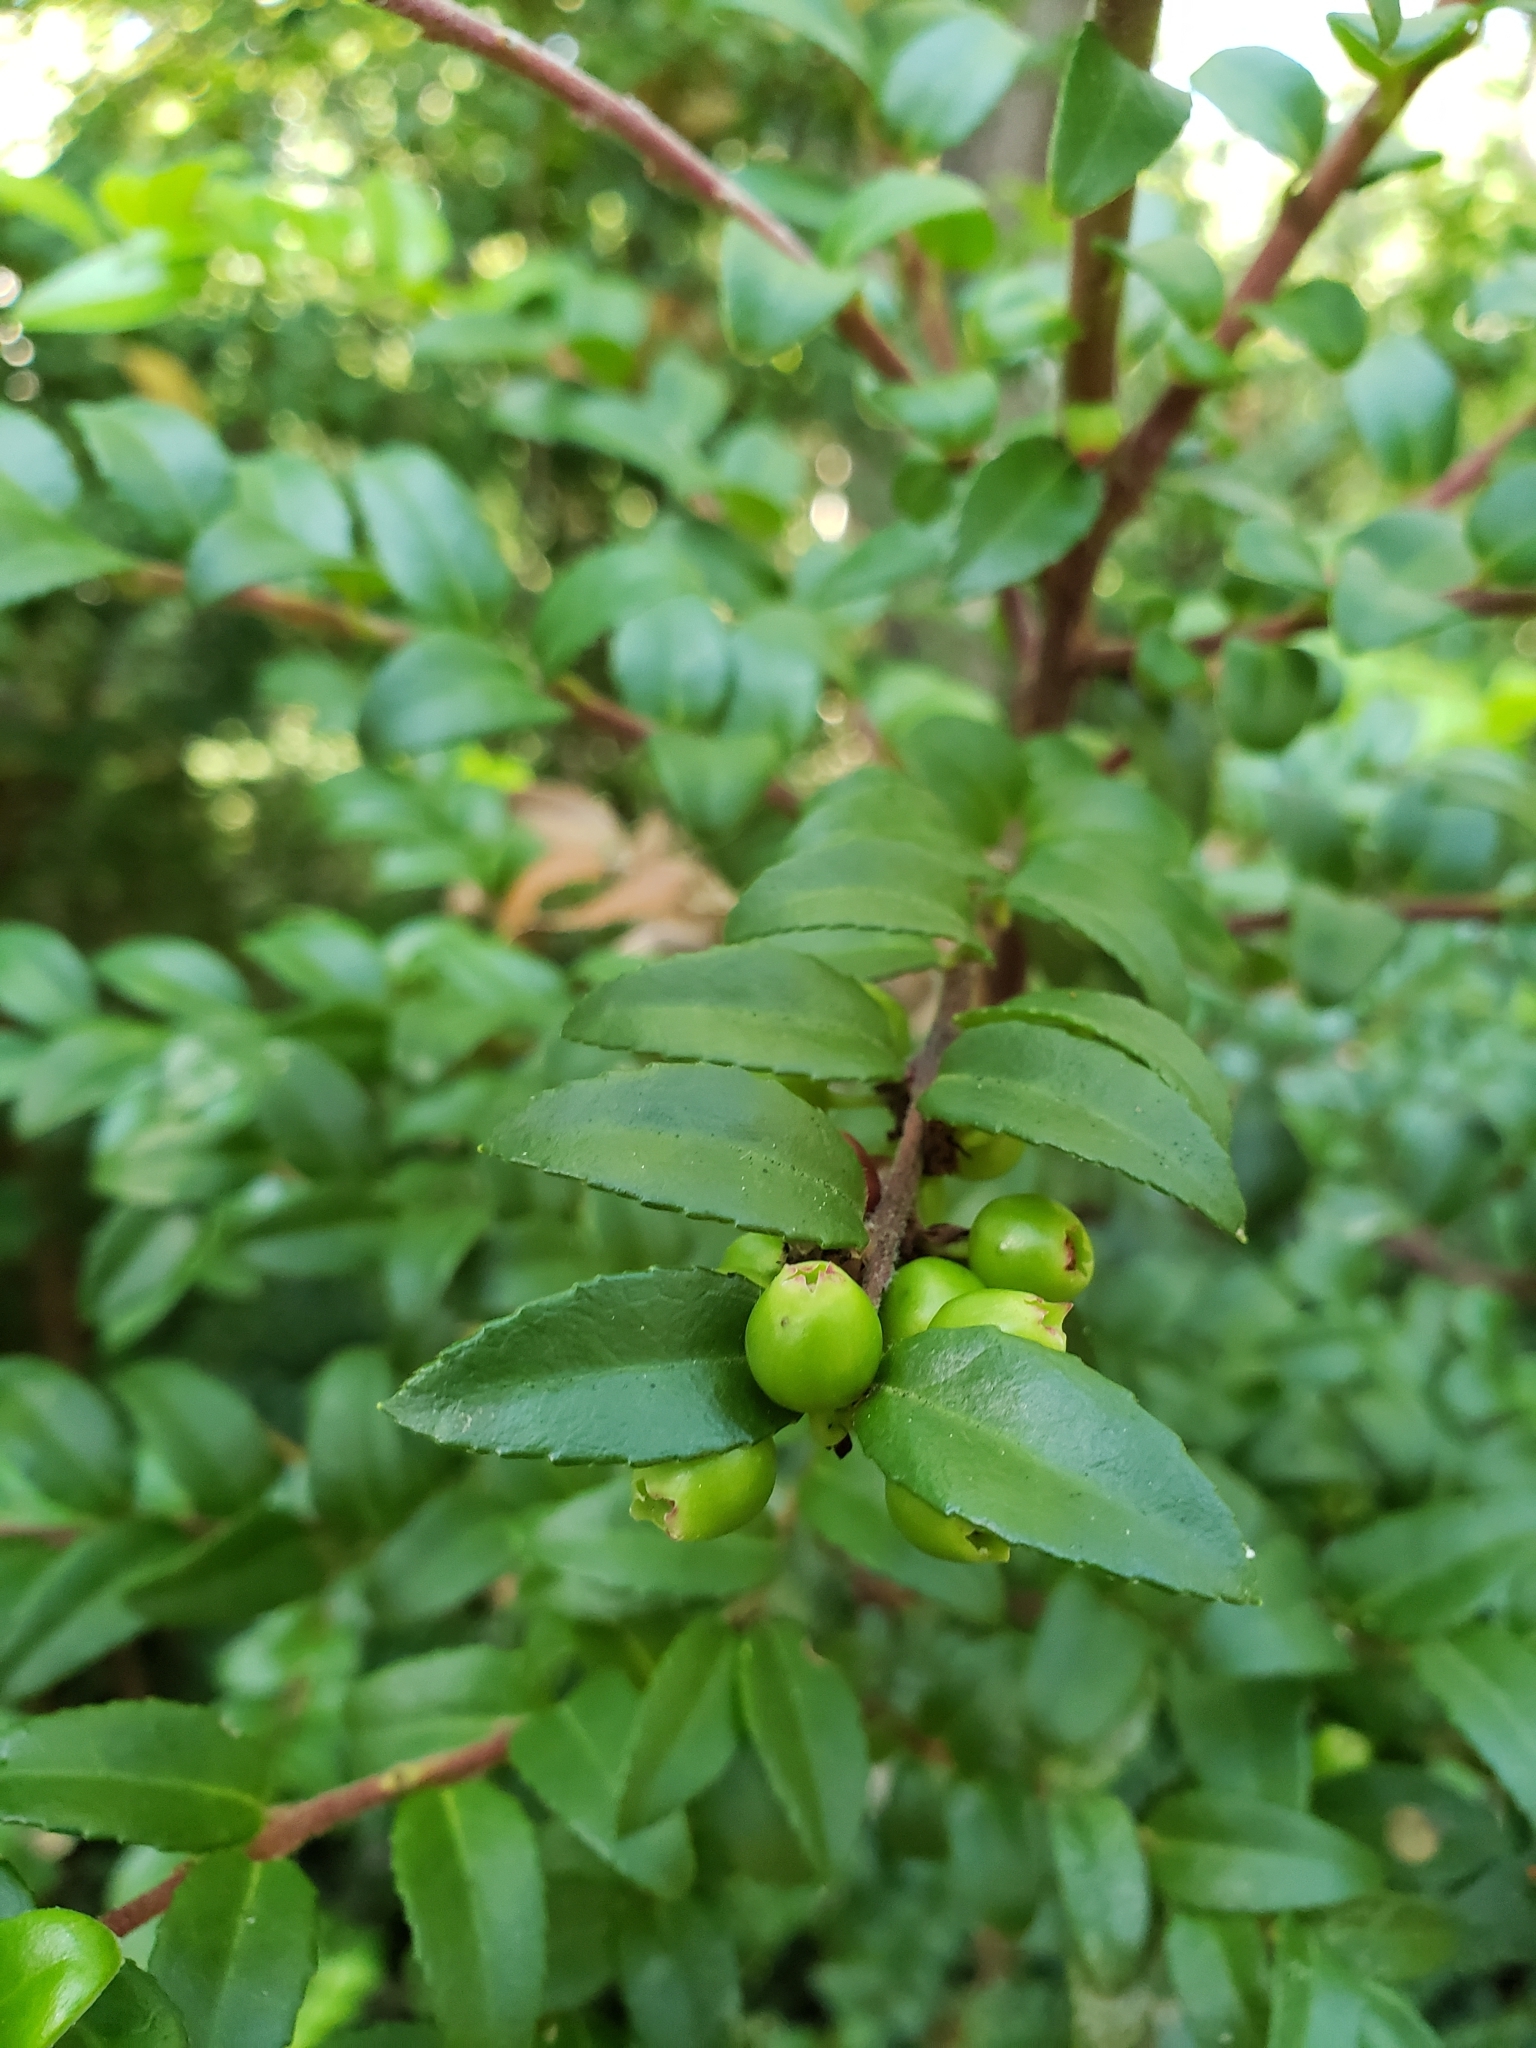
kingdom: Plantae
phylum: Tracheophyta
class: Magnoliopsida
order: Ericales
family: Ericaceae
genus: Vaccinium
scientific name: Vaccinium ovatum
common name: California-huckleberry
